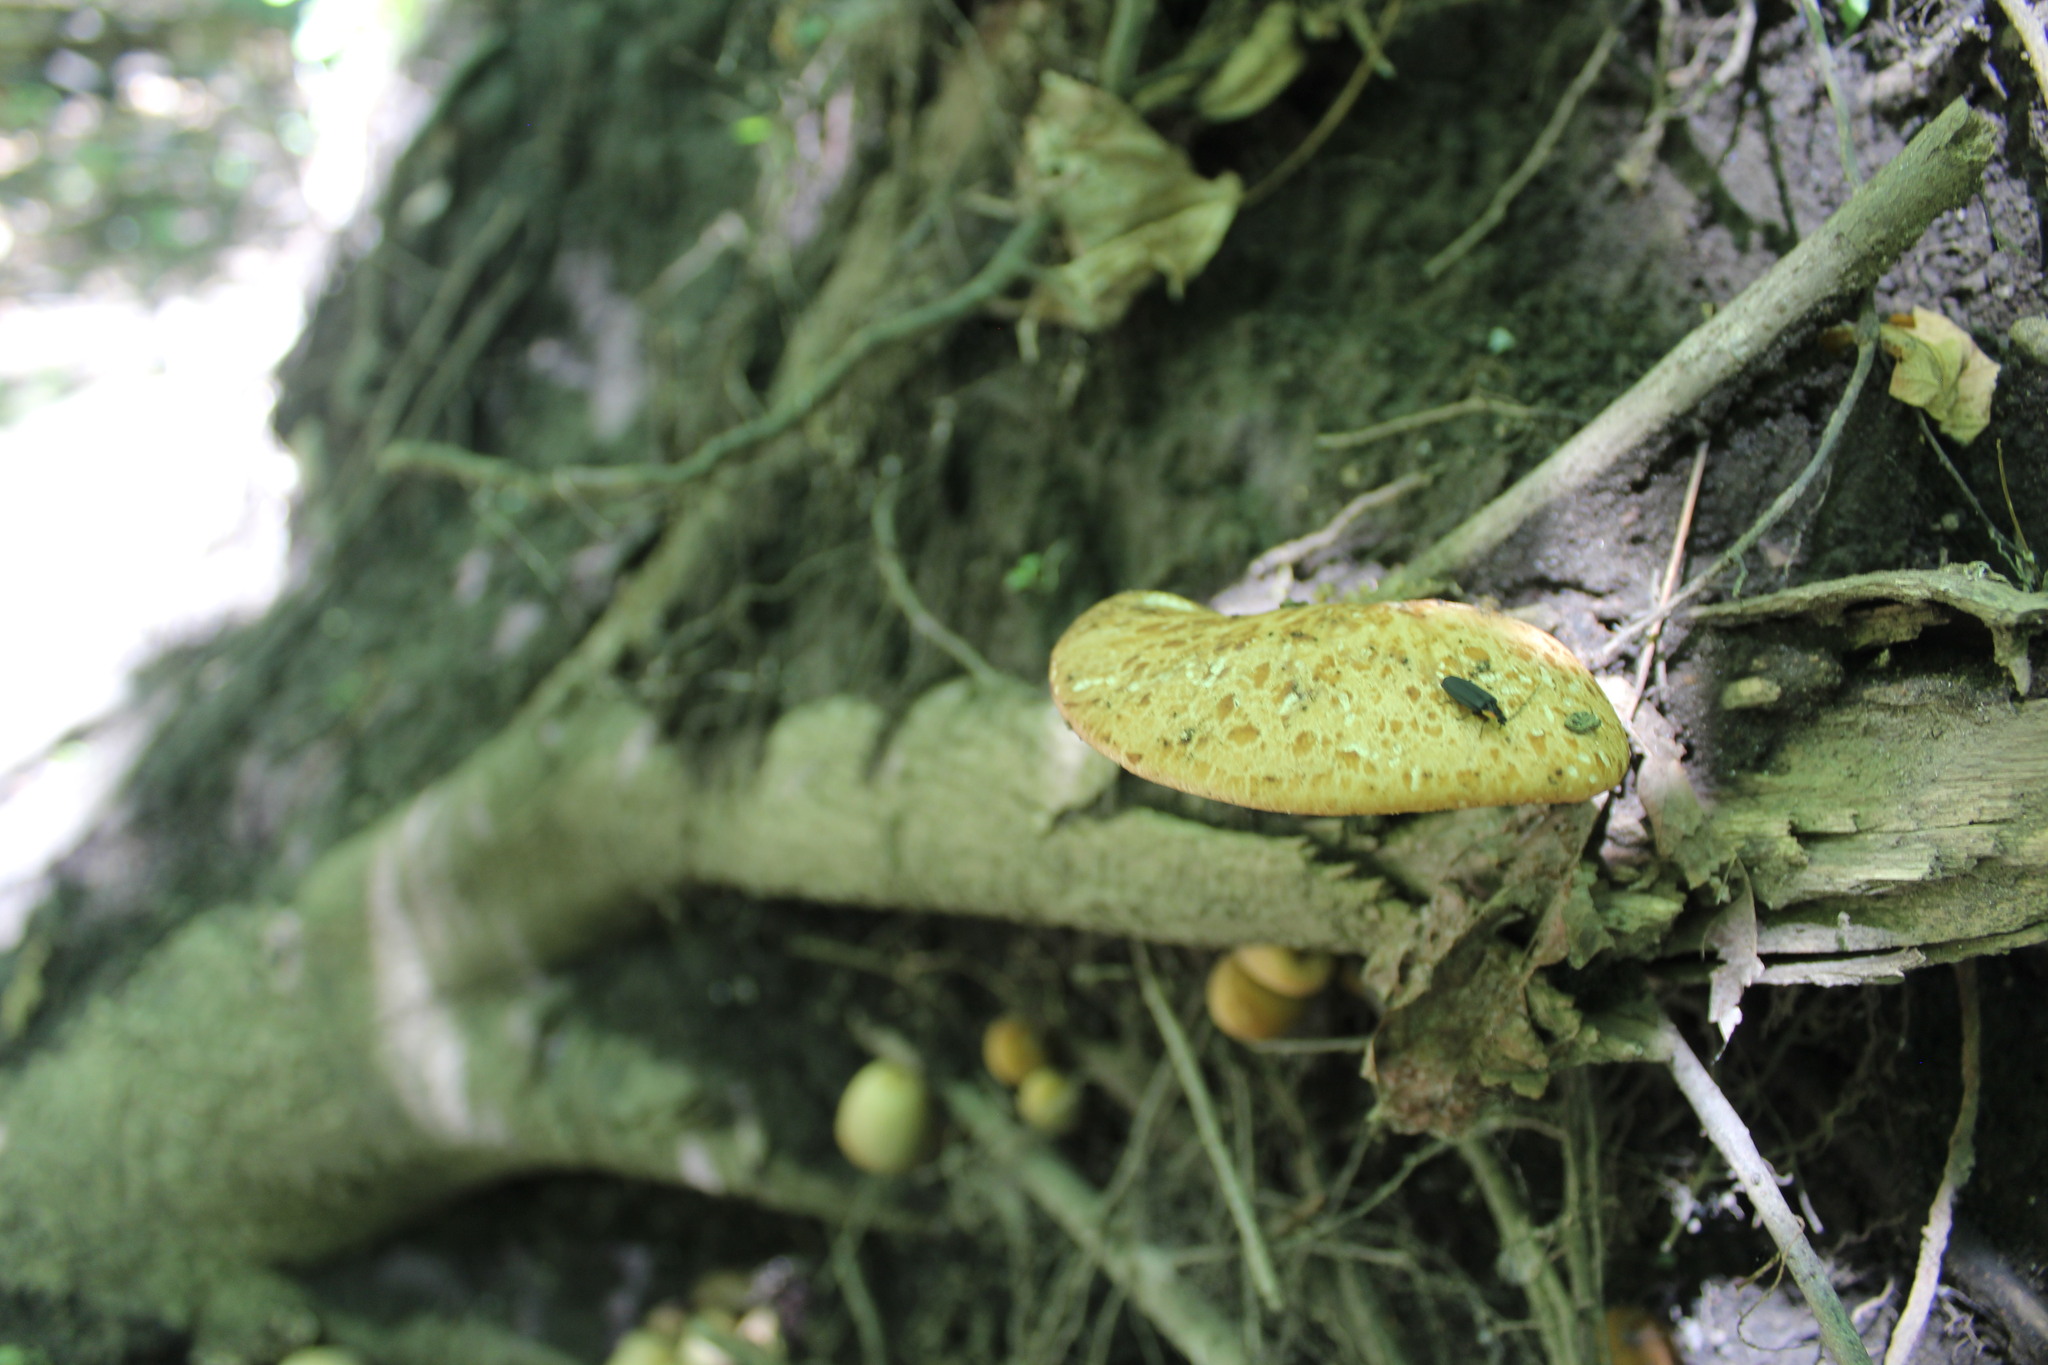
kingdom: Fungi
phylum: Basidiomycota
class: Agaricomycetes
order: Polyporales
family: Polyporaceae
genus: Cerioporus
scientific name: Cerioporus squamosus
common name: Dryad's saddle
